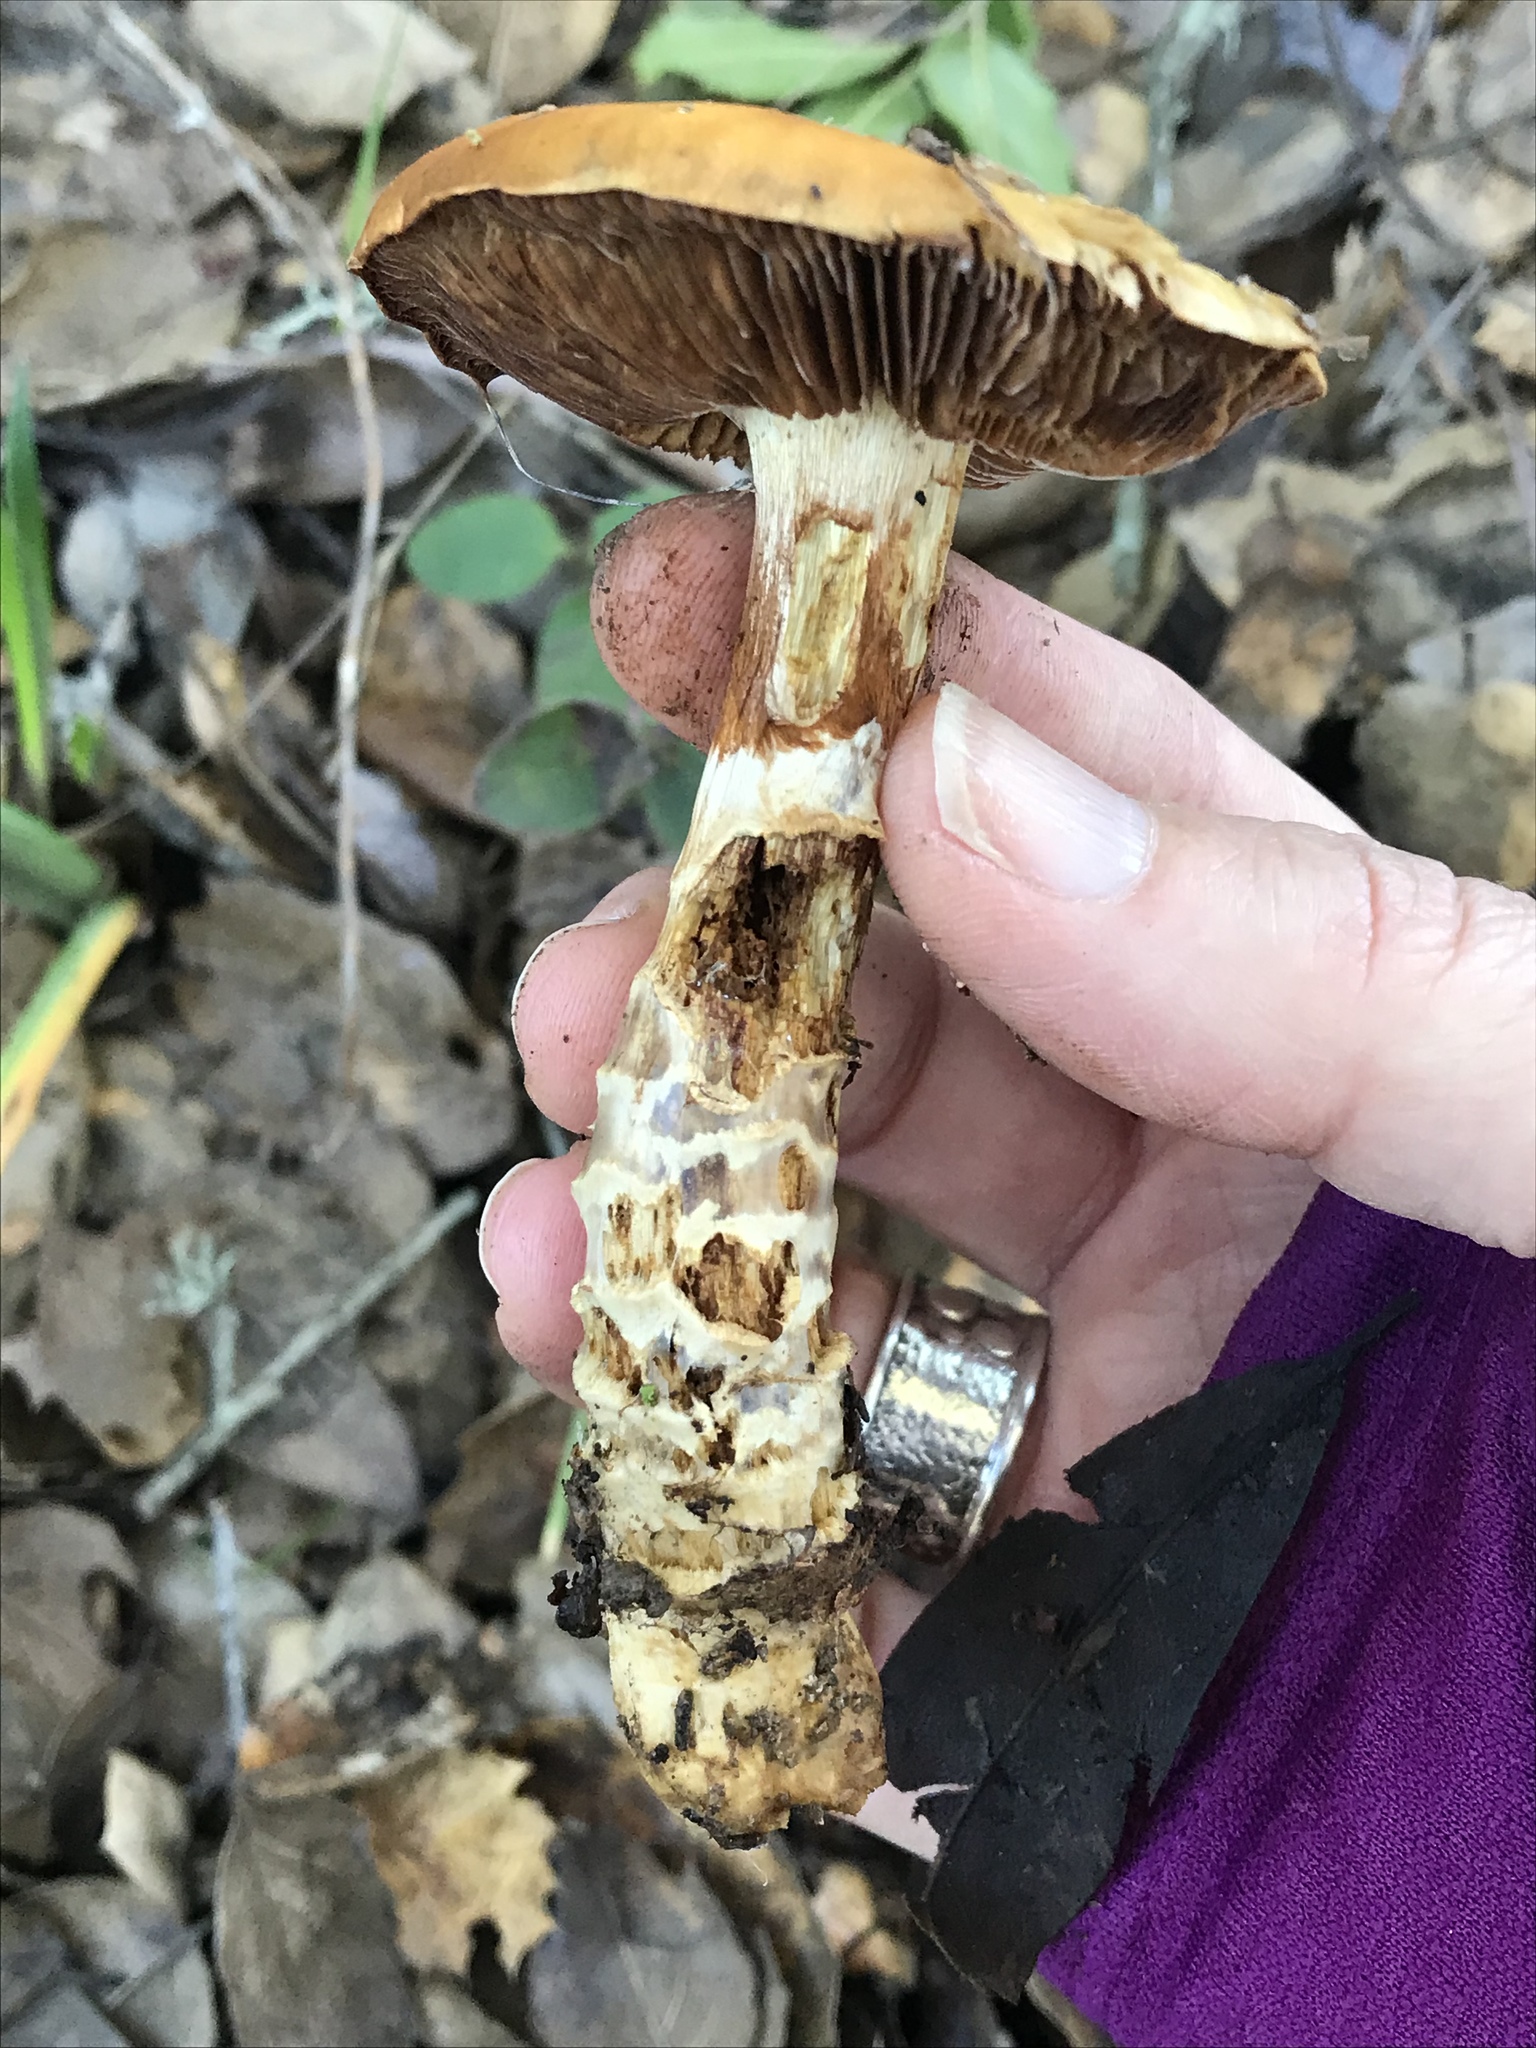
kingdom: Fungi
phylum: Basidiomycota
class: Agaricomycetes
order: Agaricales
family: Cortinariaceae
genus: Cortinarius
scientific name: Cortinarius glutinosoarmillatus
